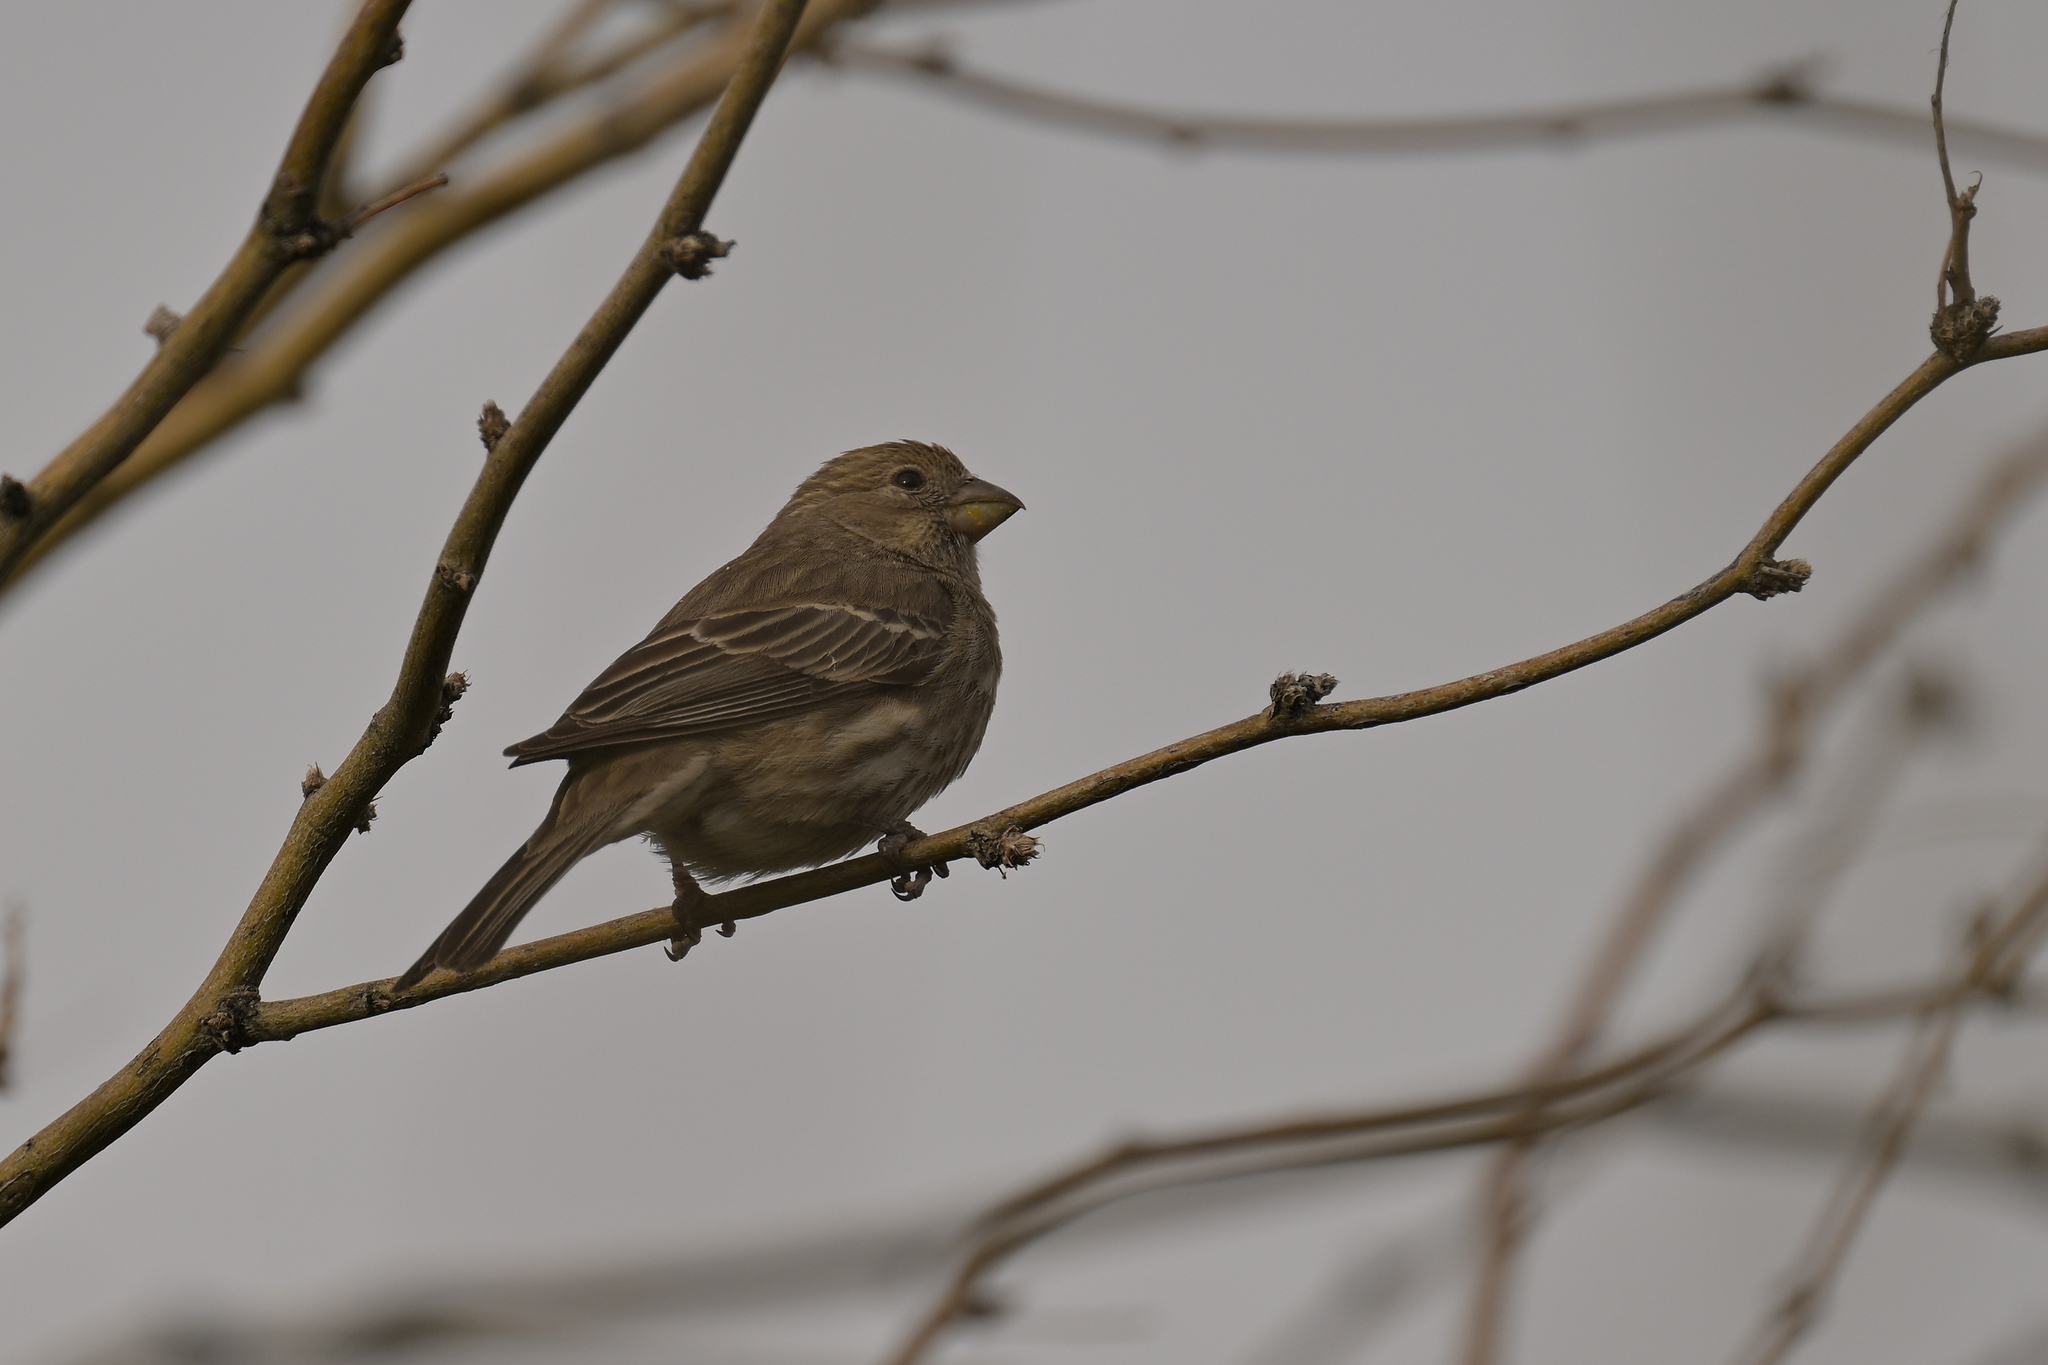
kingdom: Animalia
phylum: Chordata
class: Aves
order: Passeriformes
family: Fringillidae
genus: Haemorhous
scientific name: Haemorhous mexicanus
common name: House finch
